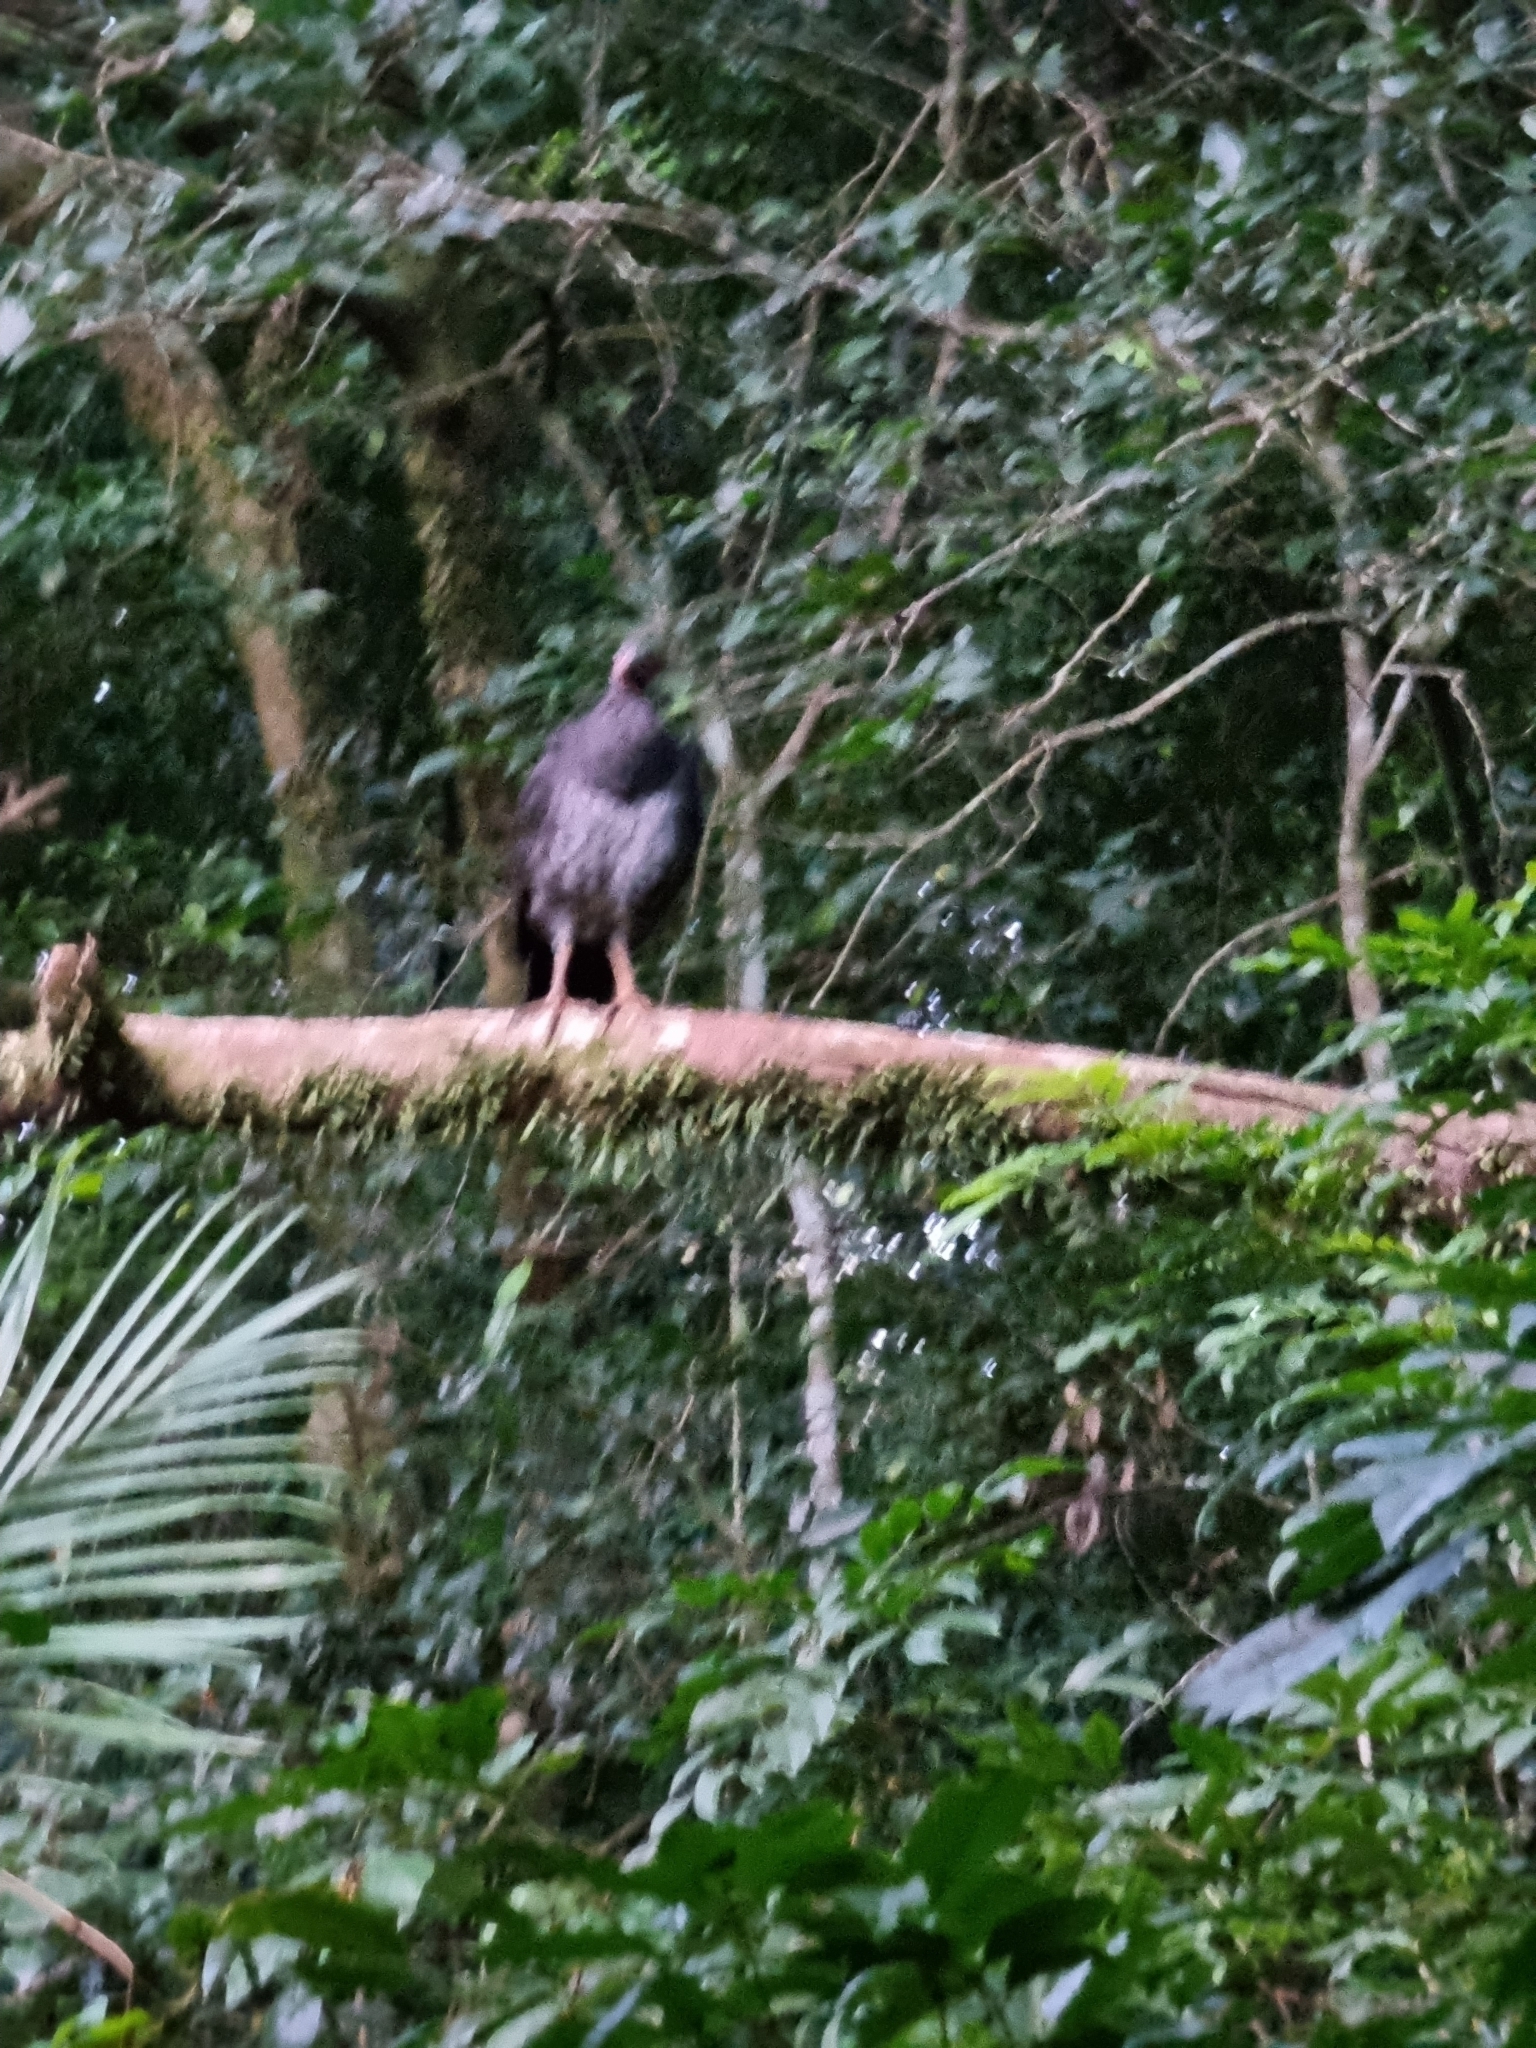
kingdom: Animalia
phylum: Chordata
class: Aves
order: Galliformes
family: Megapodiidae
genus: Alectura
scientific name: Alectura lathami
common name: Australian brushturkey
